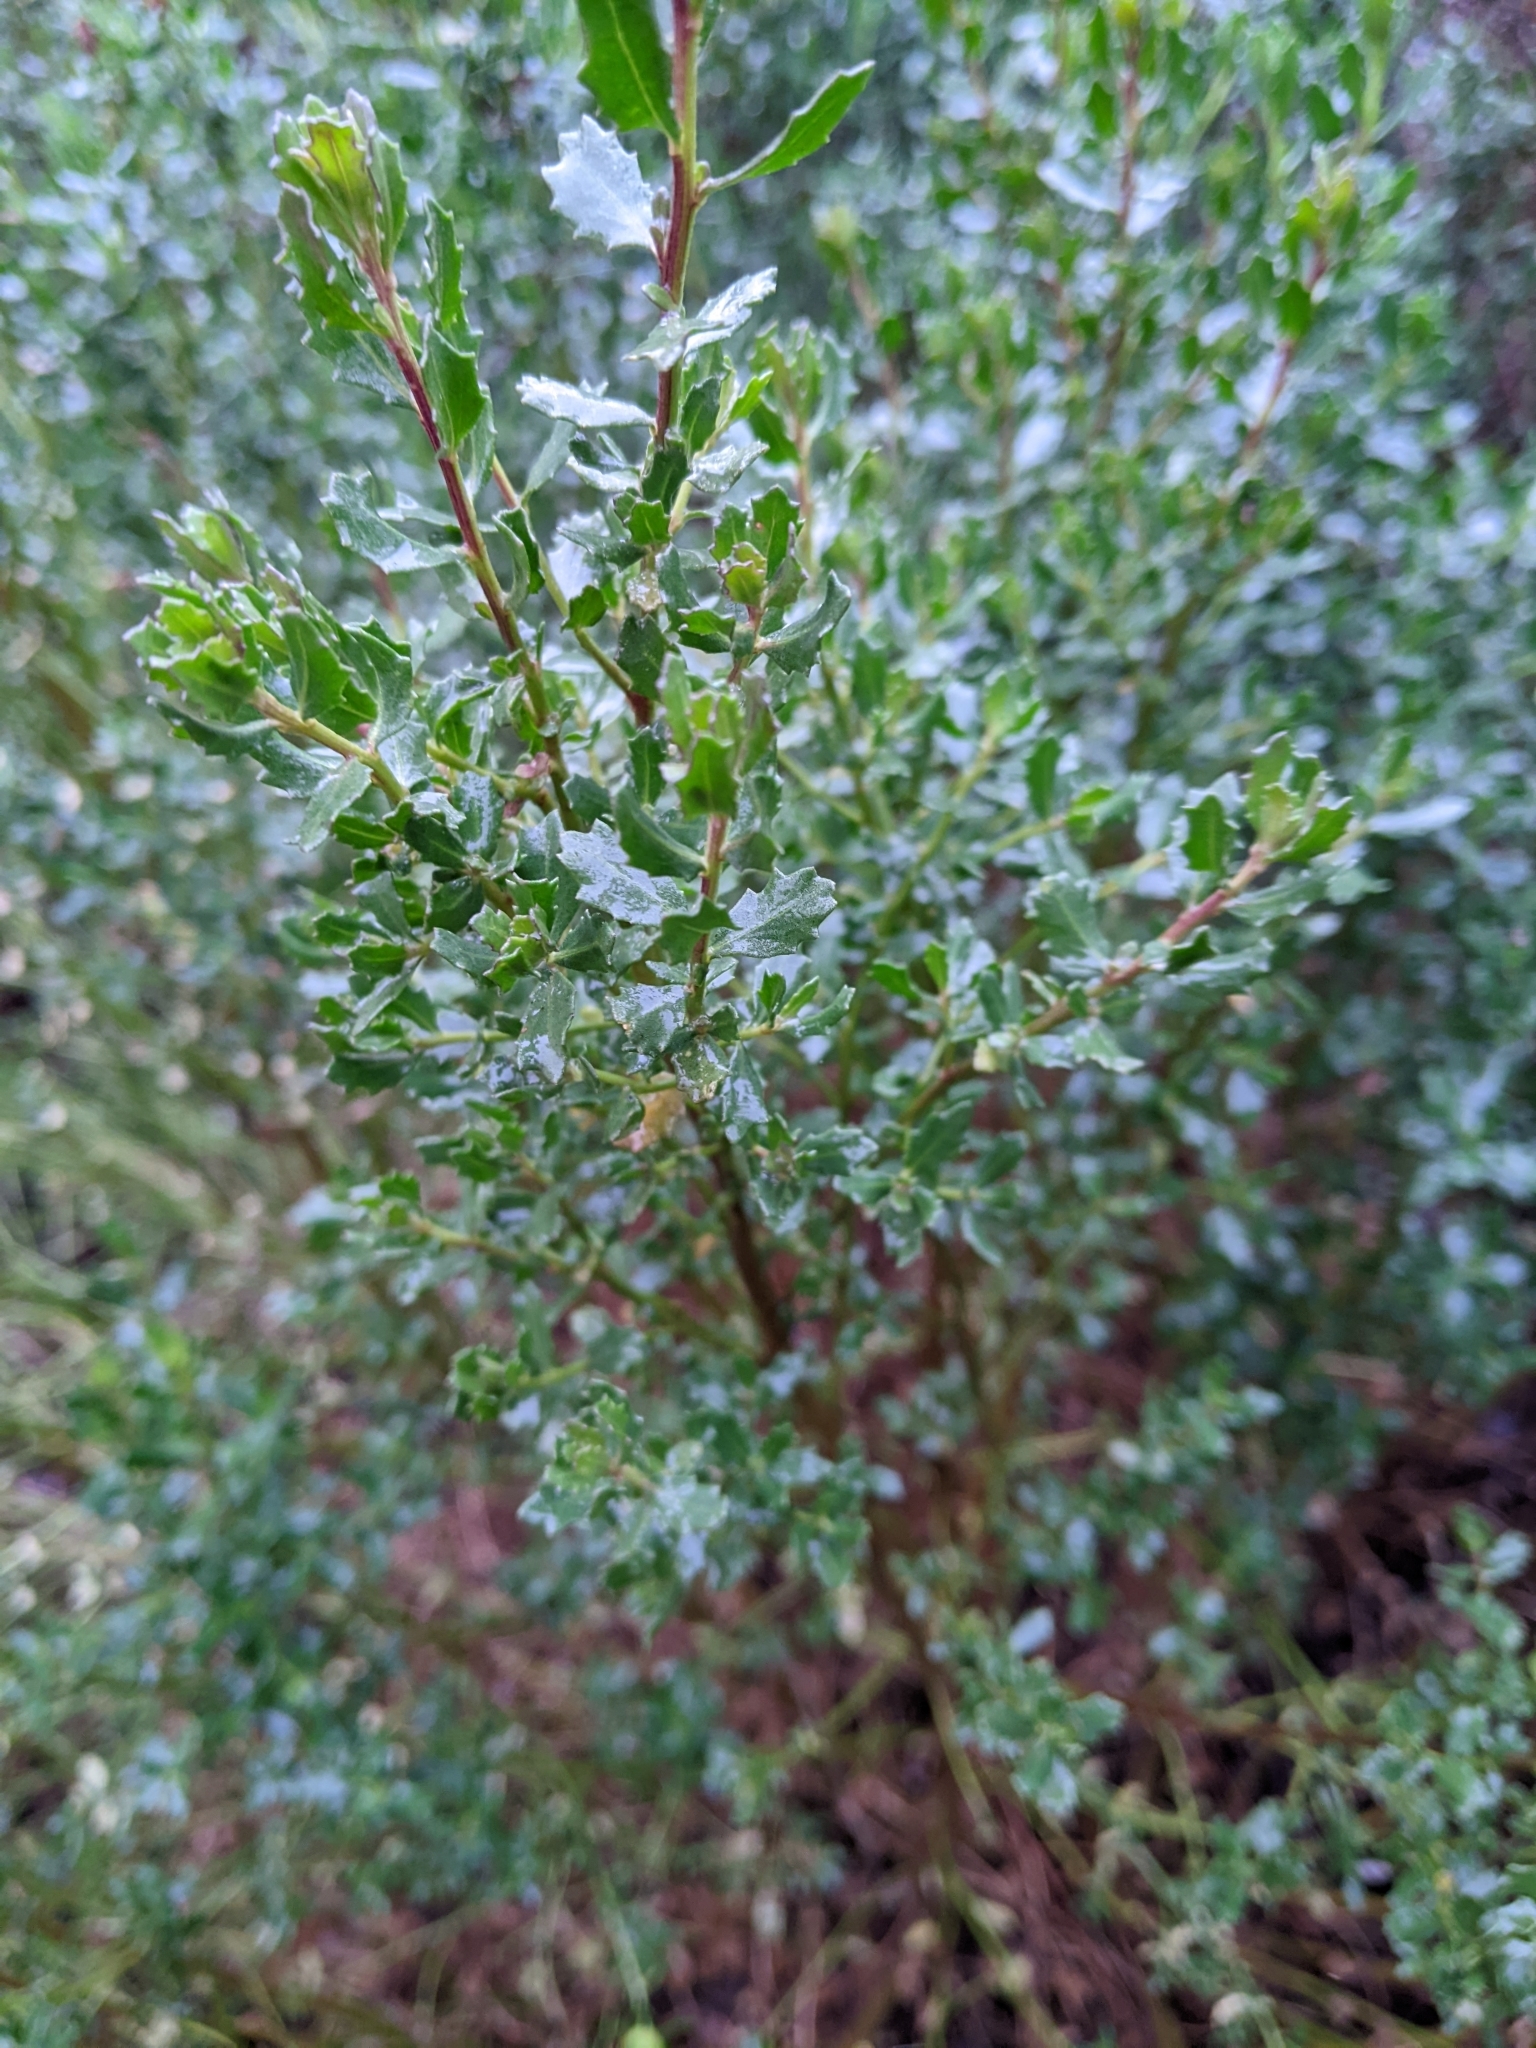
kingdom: Plantae
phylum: Tracheophyta
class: Magnoliopsida
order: Asterales
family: Asteraceae
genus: Baccharis
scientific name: Baccharis pilularis
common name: Coyotebrush
